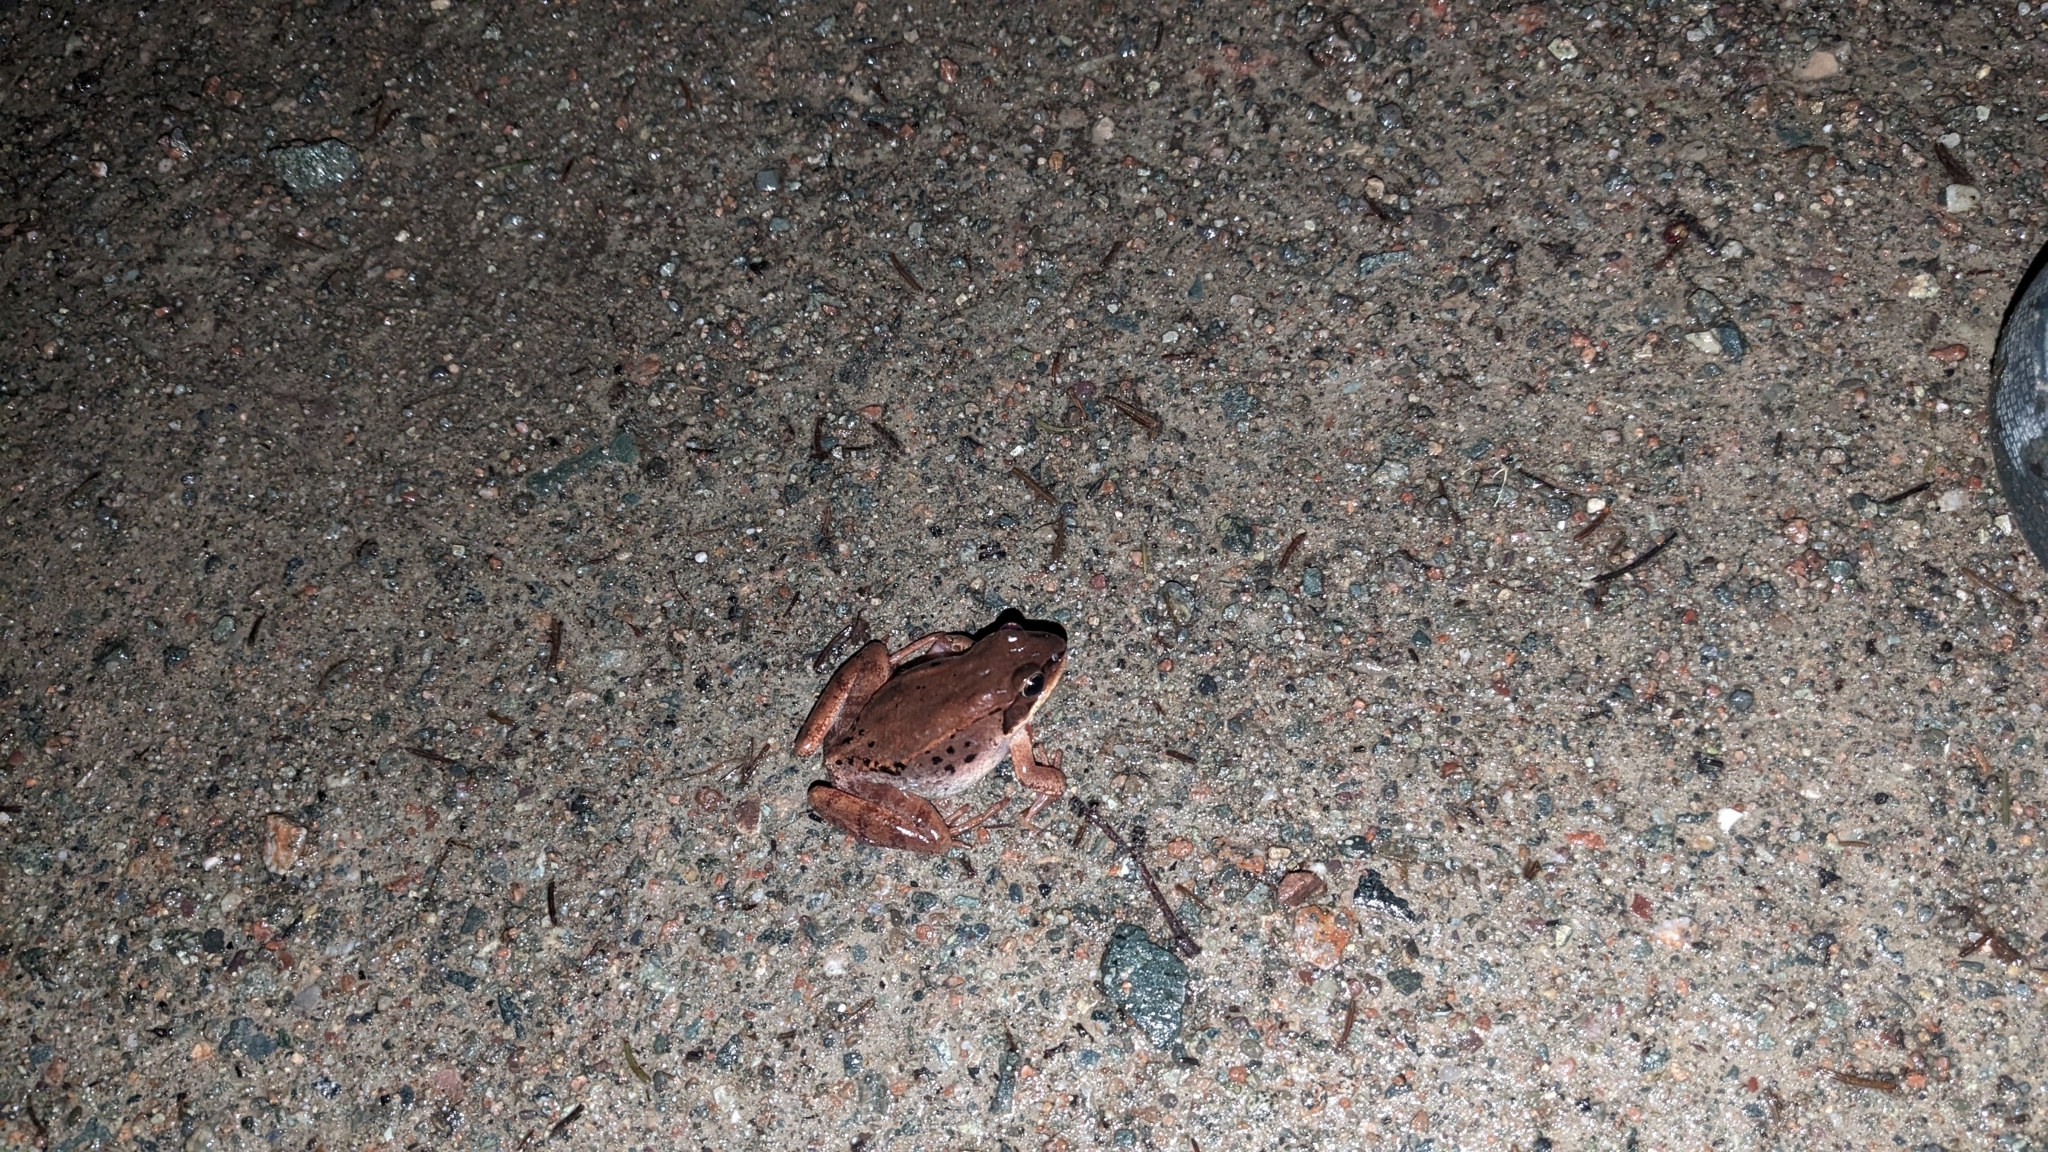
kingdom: Animalia
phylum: Chordata
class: Amphibia
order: Anura
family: Ranidae
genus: Lithobates
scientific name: Lithobates sylvaticus
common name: Wood frog
